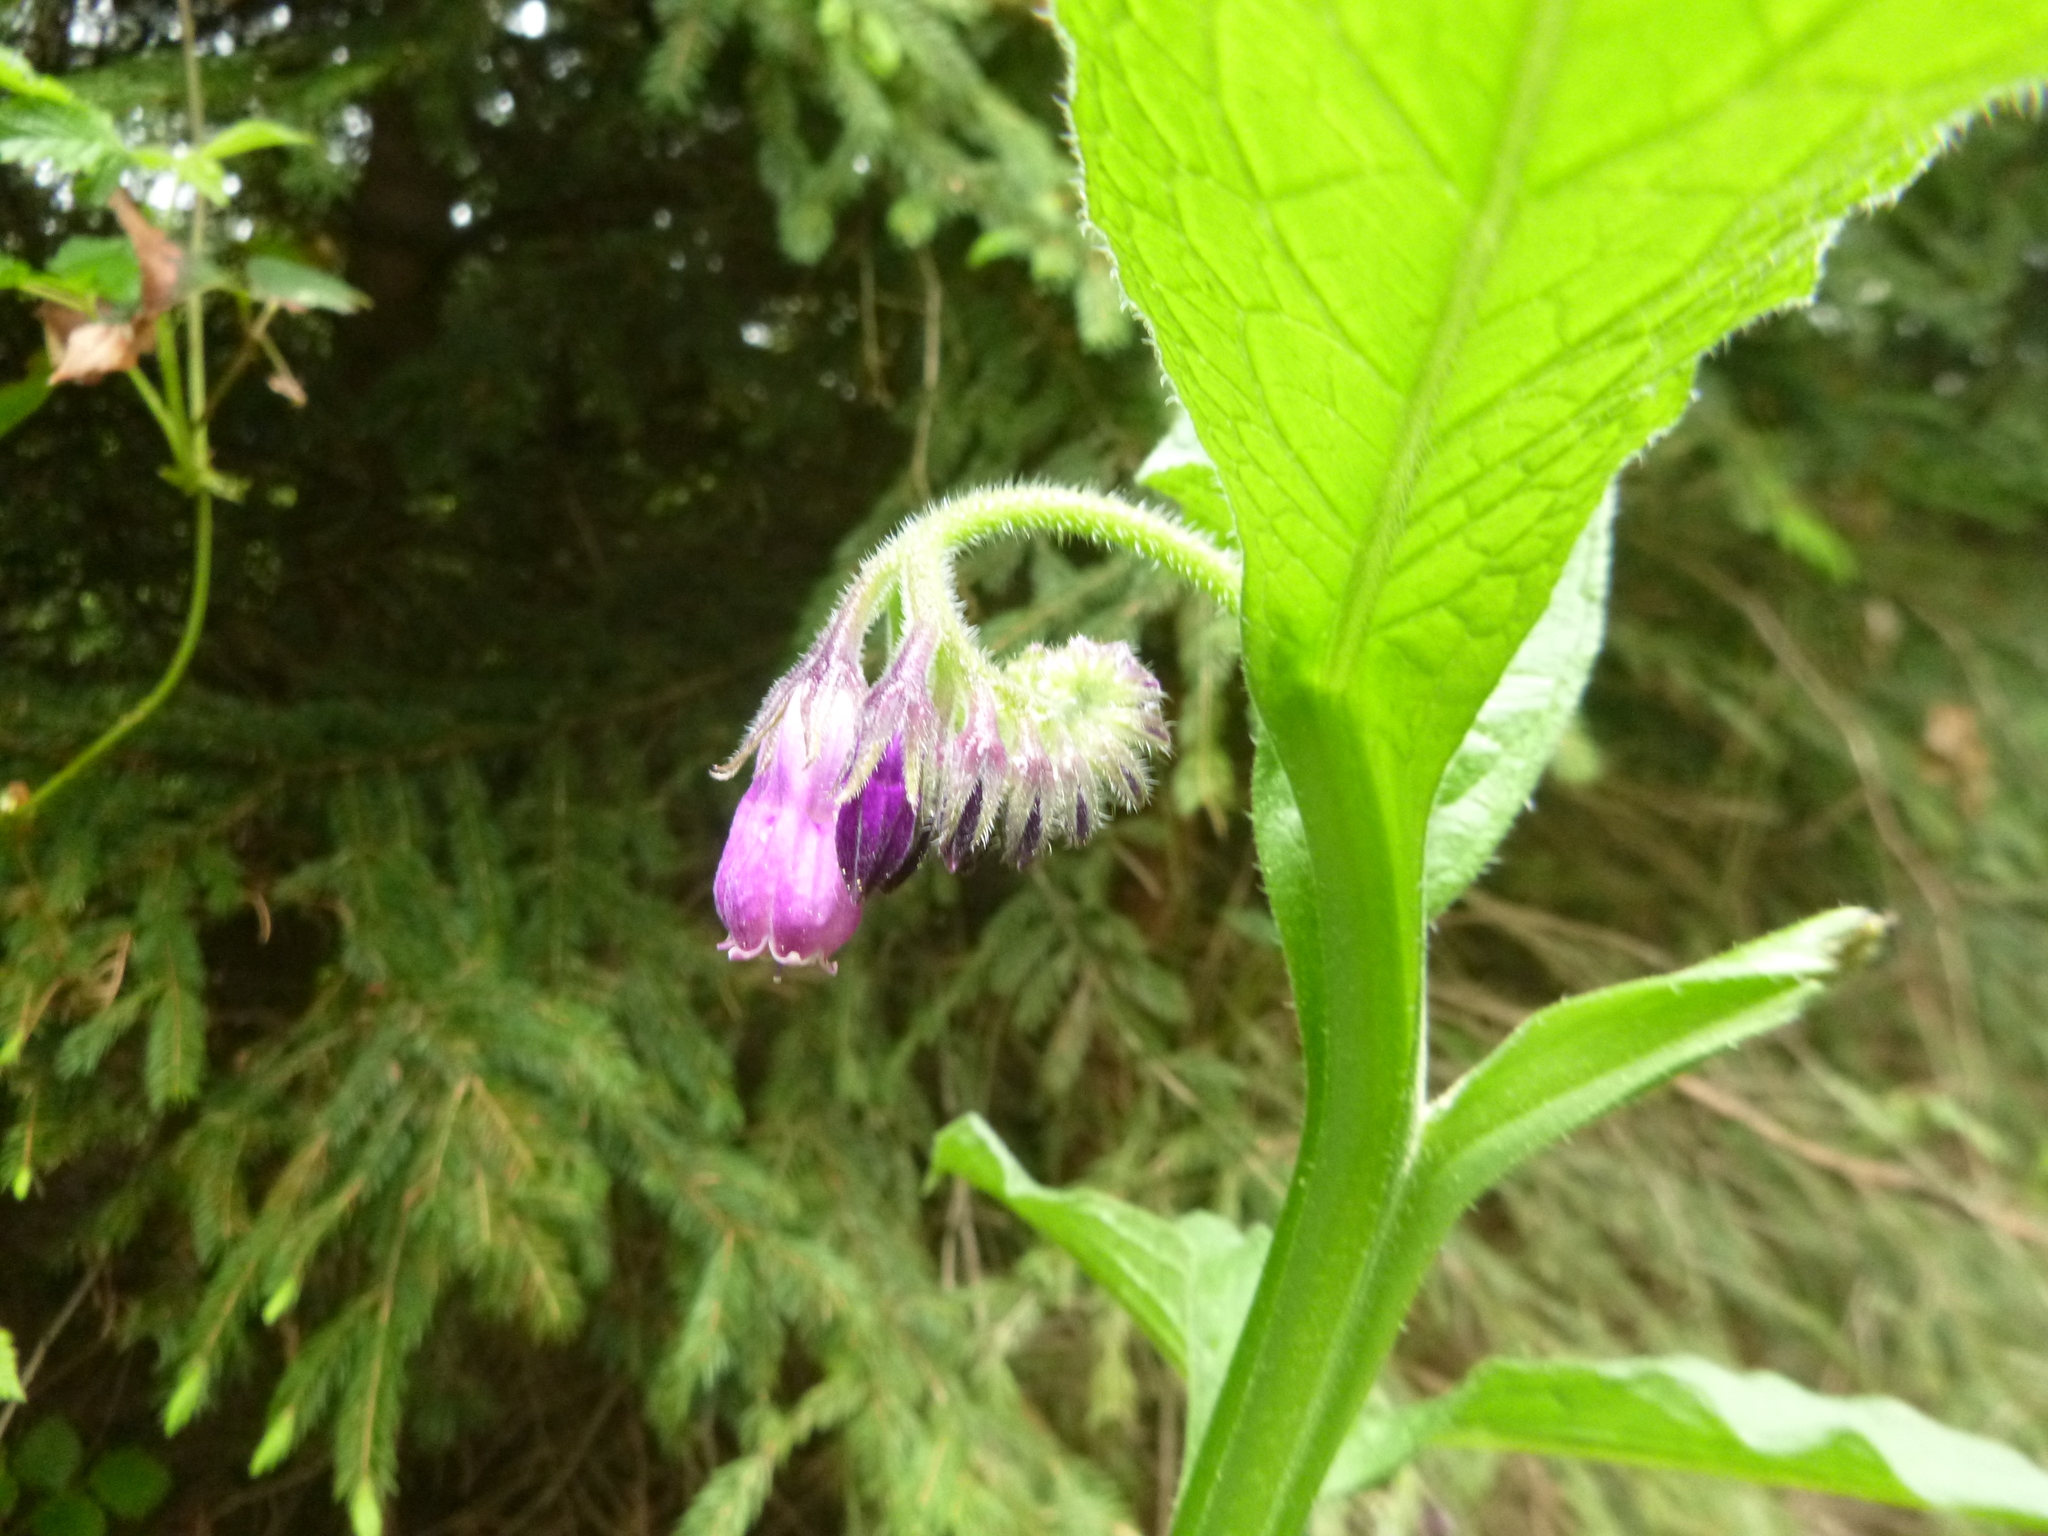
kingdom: Plantae
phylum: Tracheophyta
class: Magnoliopsida
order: Boraginales
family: Boraginaceae
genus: Symphytum
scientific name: Symphytum officinale
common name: Common comfrey
